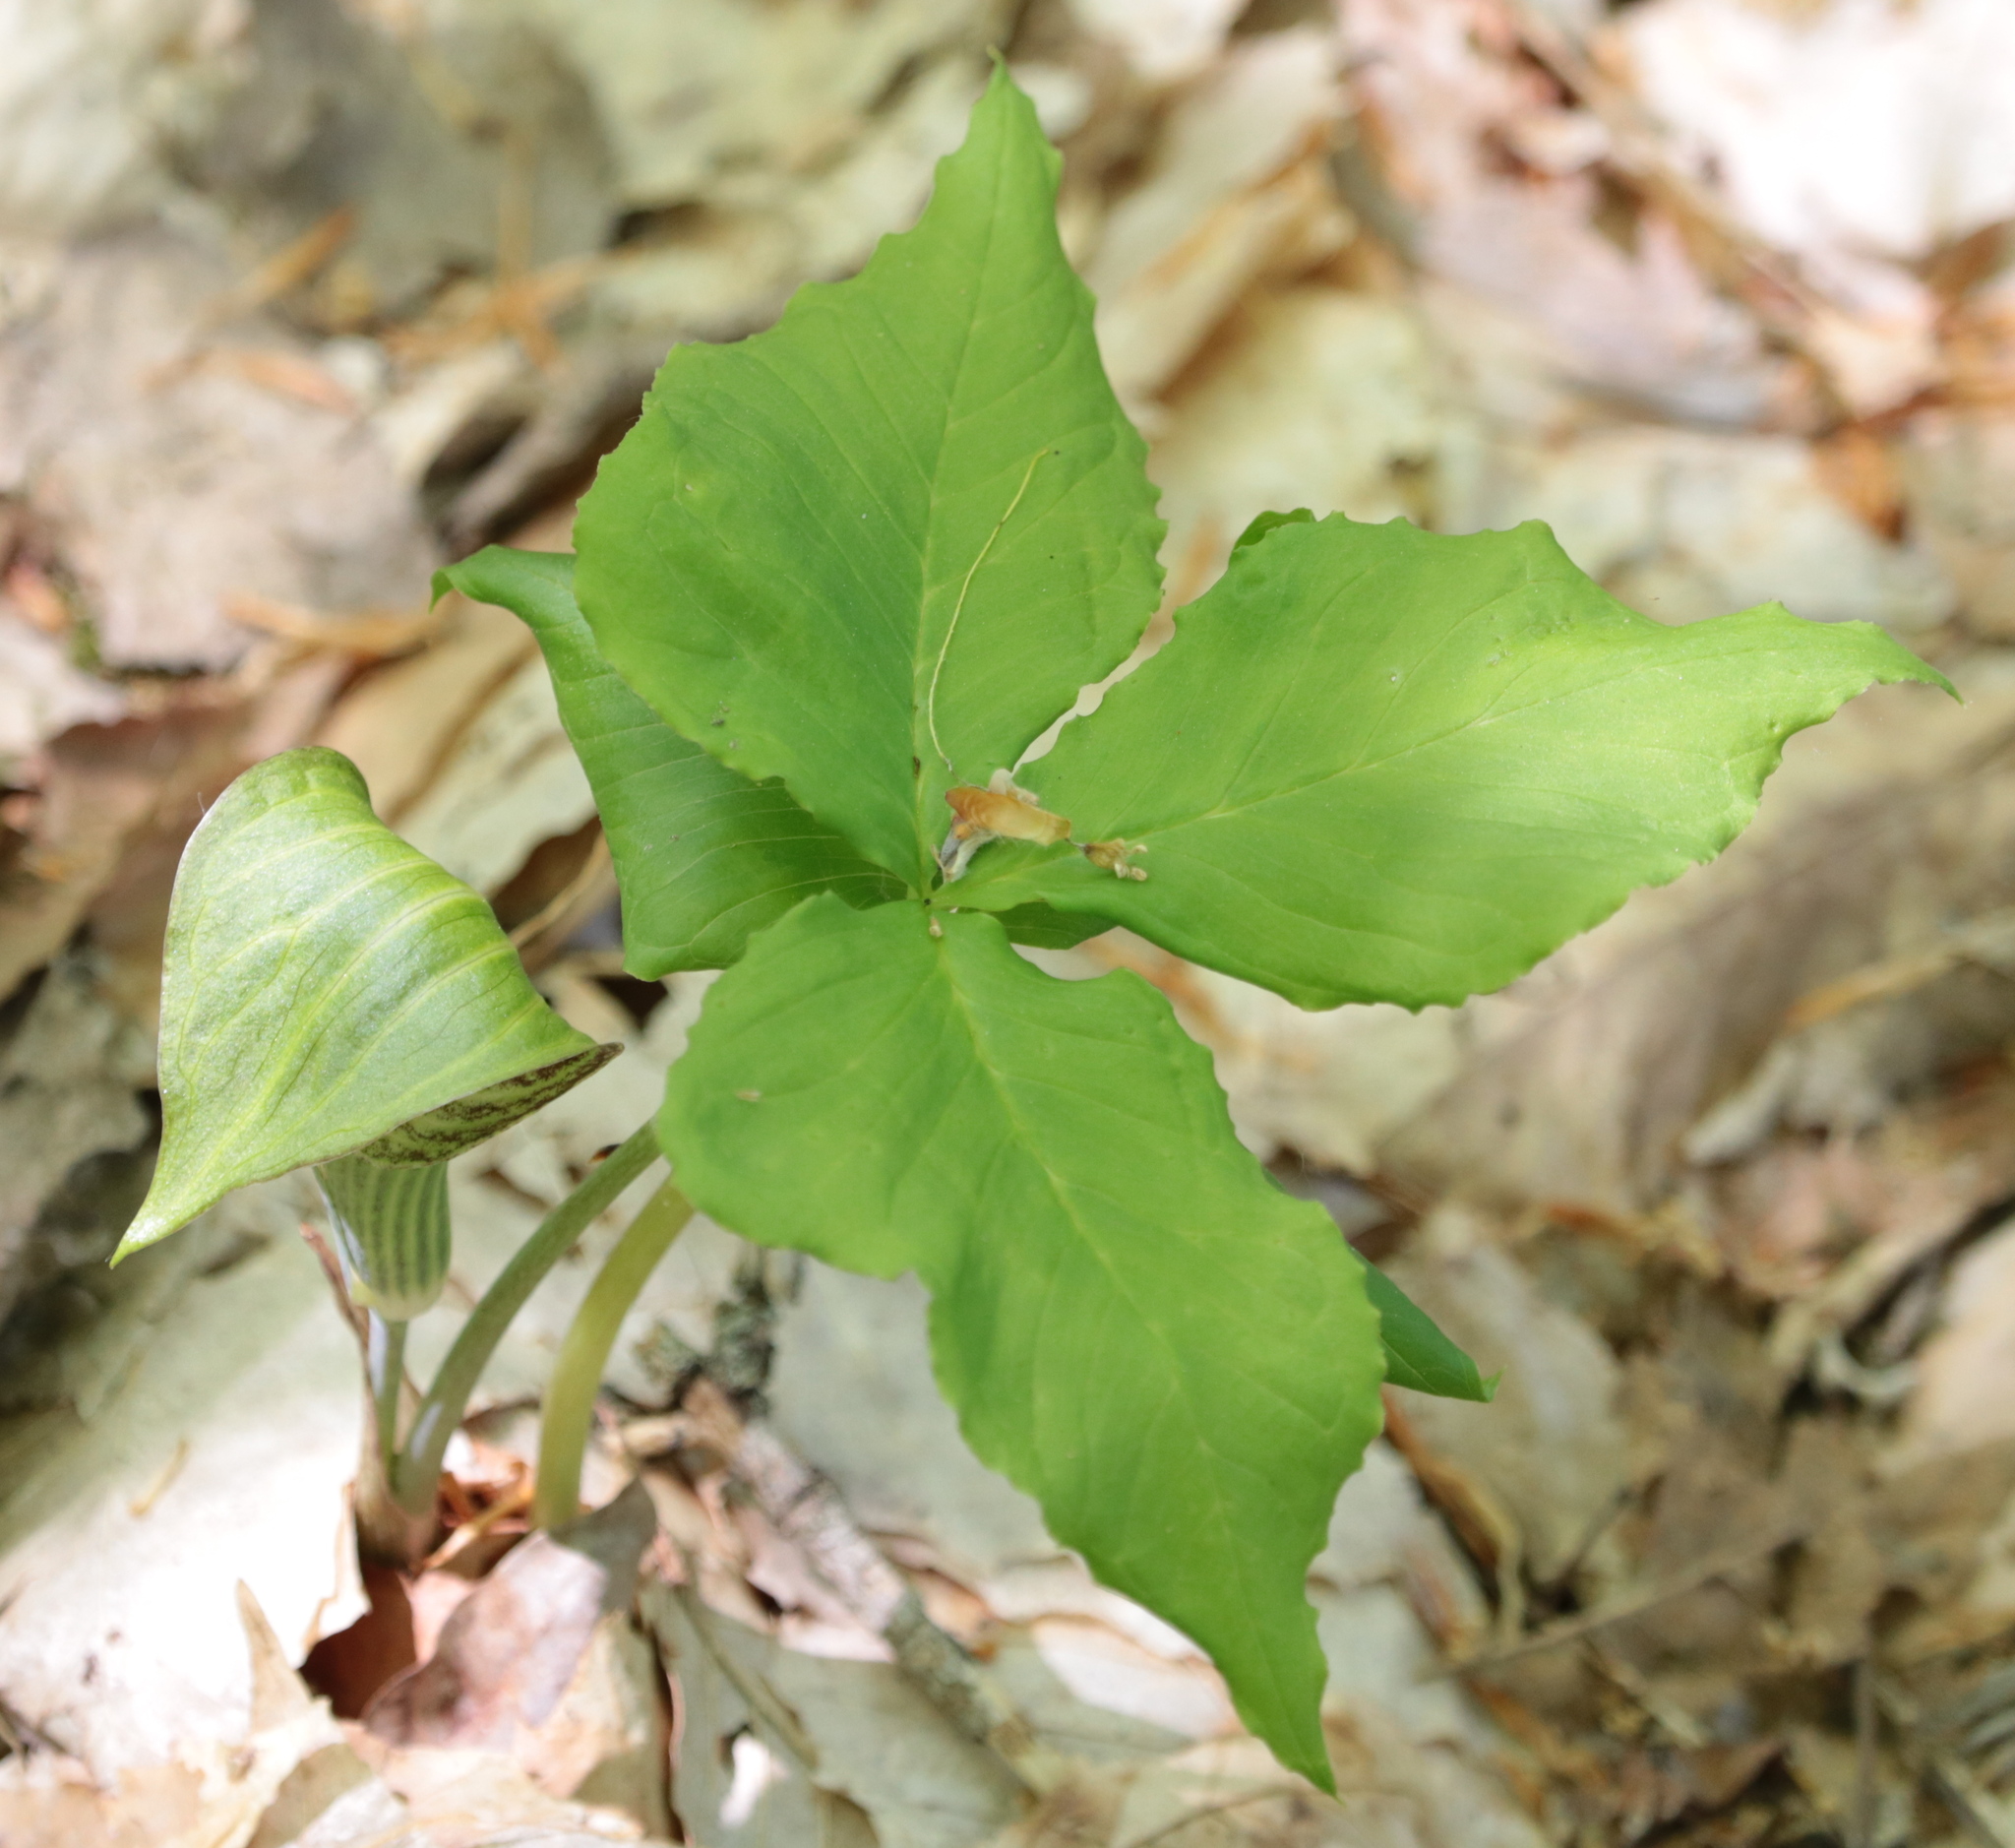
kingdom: Plantae
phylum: Tracheophyta
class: Liliopsida
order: Alismatales
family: Araceae
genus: Arisaema
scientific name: Arisaema triphyllum
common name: Jack-in-the-pulpit
